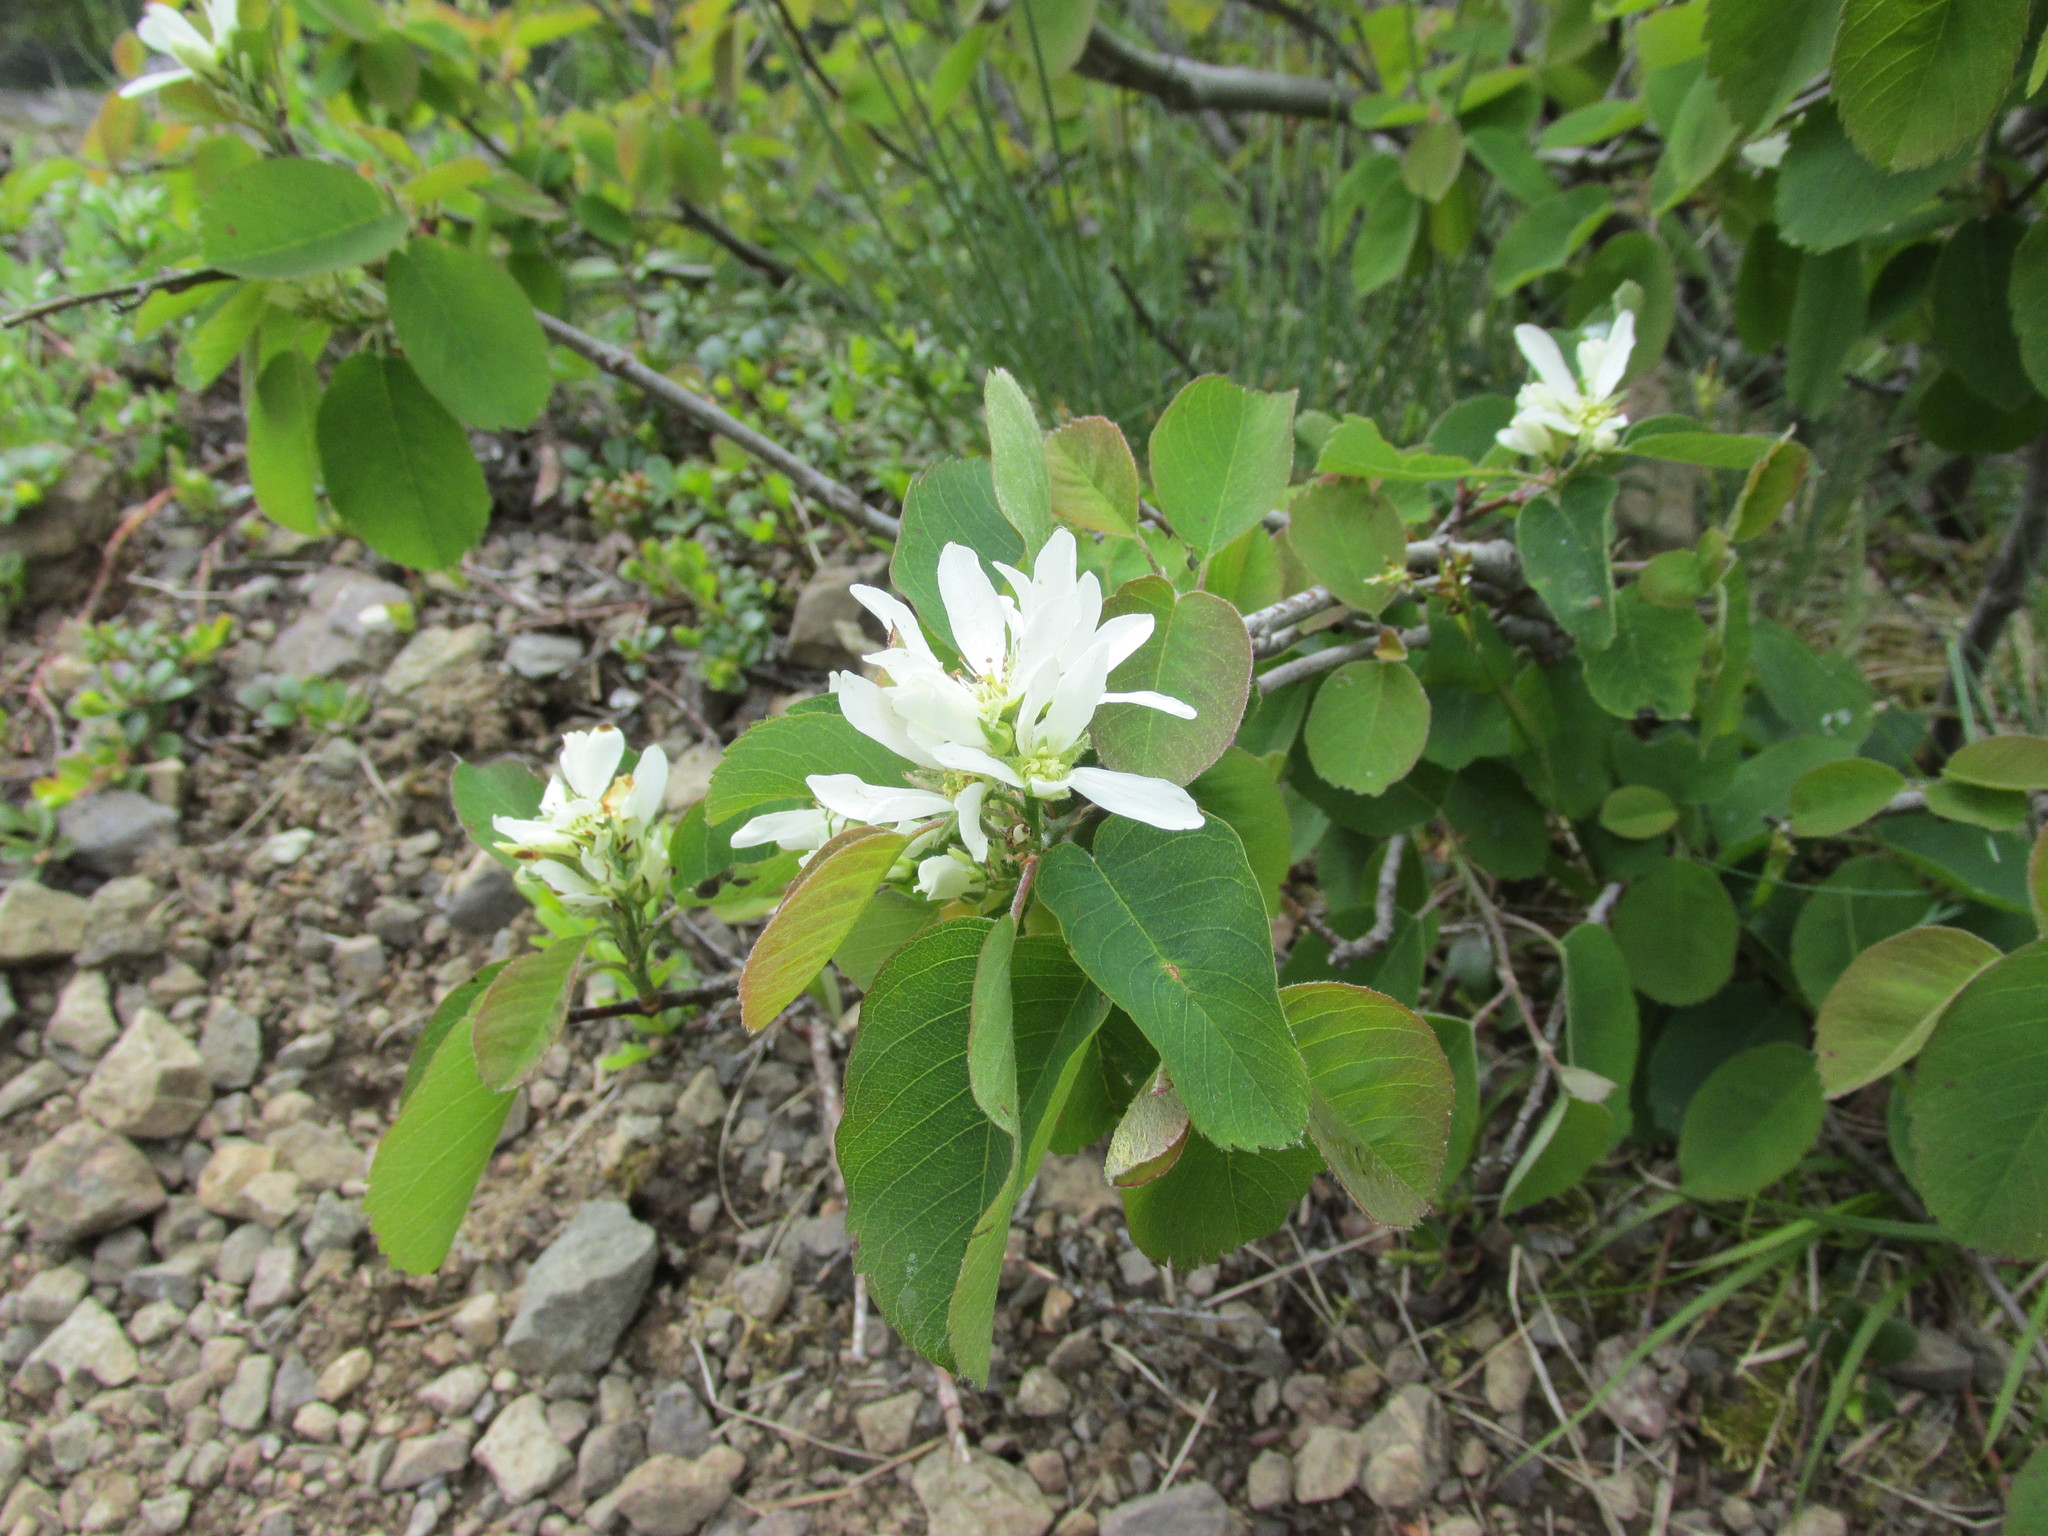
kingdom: Plantae
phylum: Tracheophyta
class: Magnoliopsida
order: Rosales
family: Rosaceae
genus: Amelanchier
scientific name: Amelanchier alnifolia
